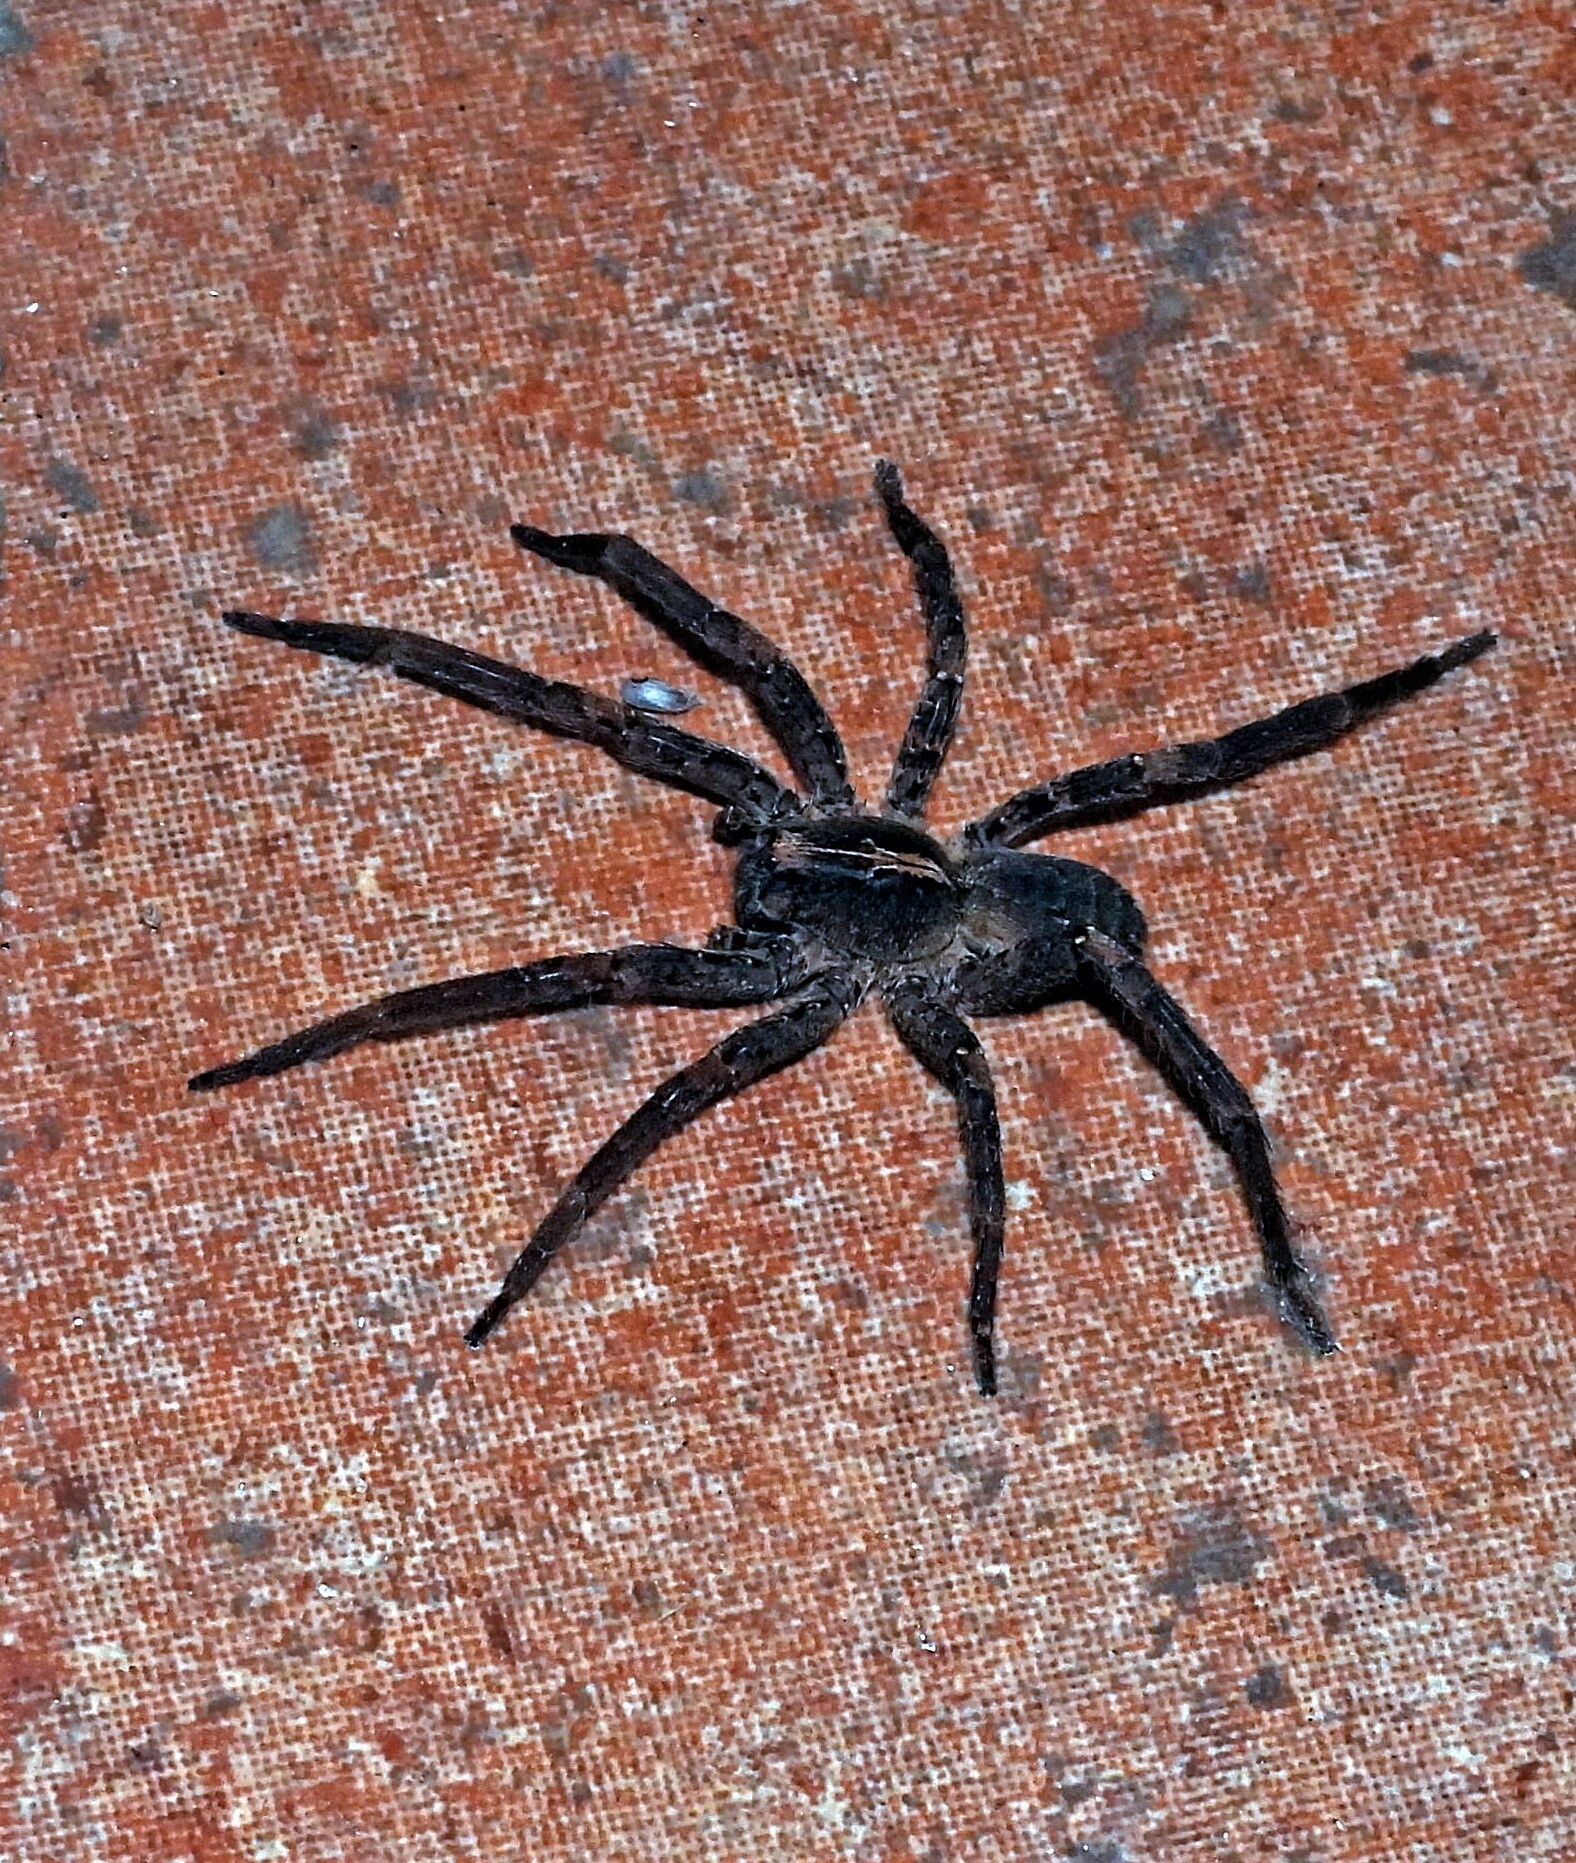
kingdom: Animalia
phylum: Arthropoda
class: Arachnida
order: Araneae
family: Ctenidae
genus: Parabatinga
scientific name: Parabatinga brevipes
